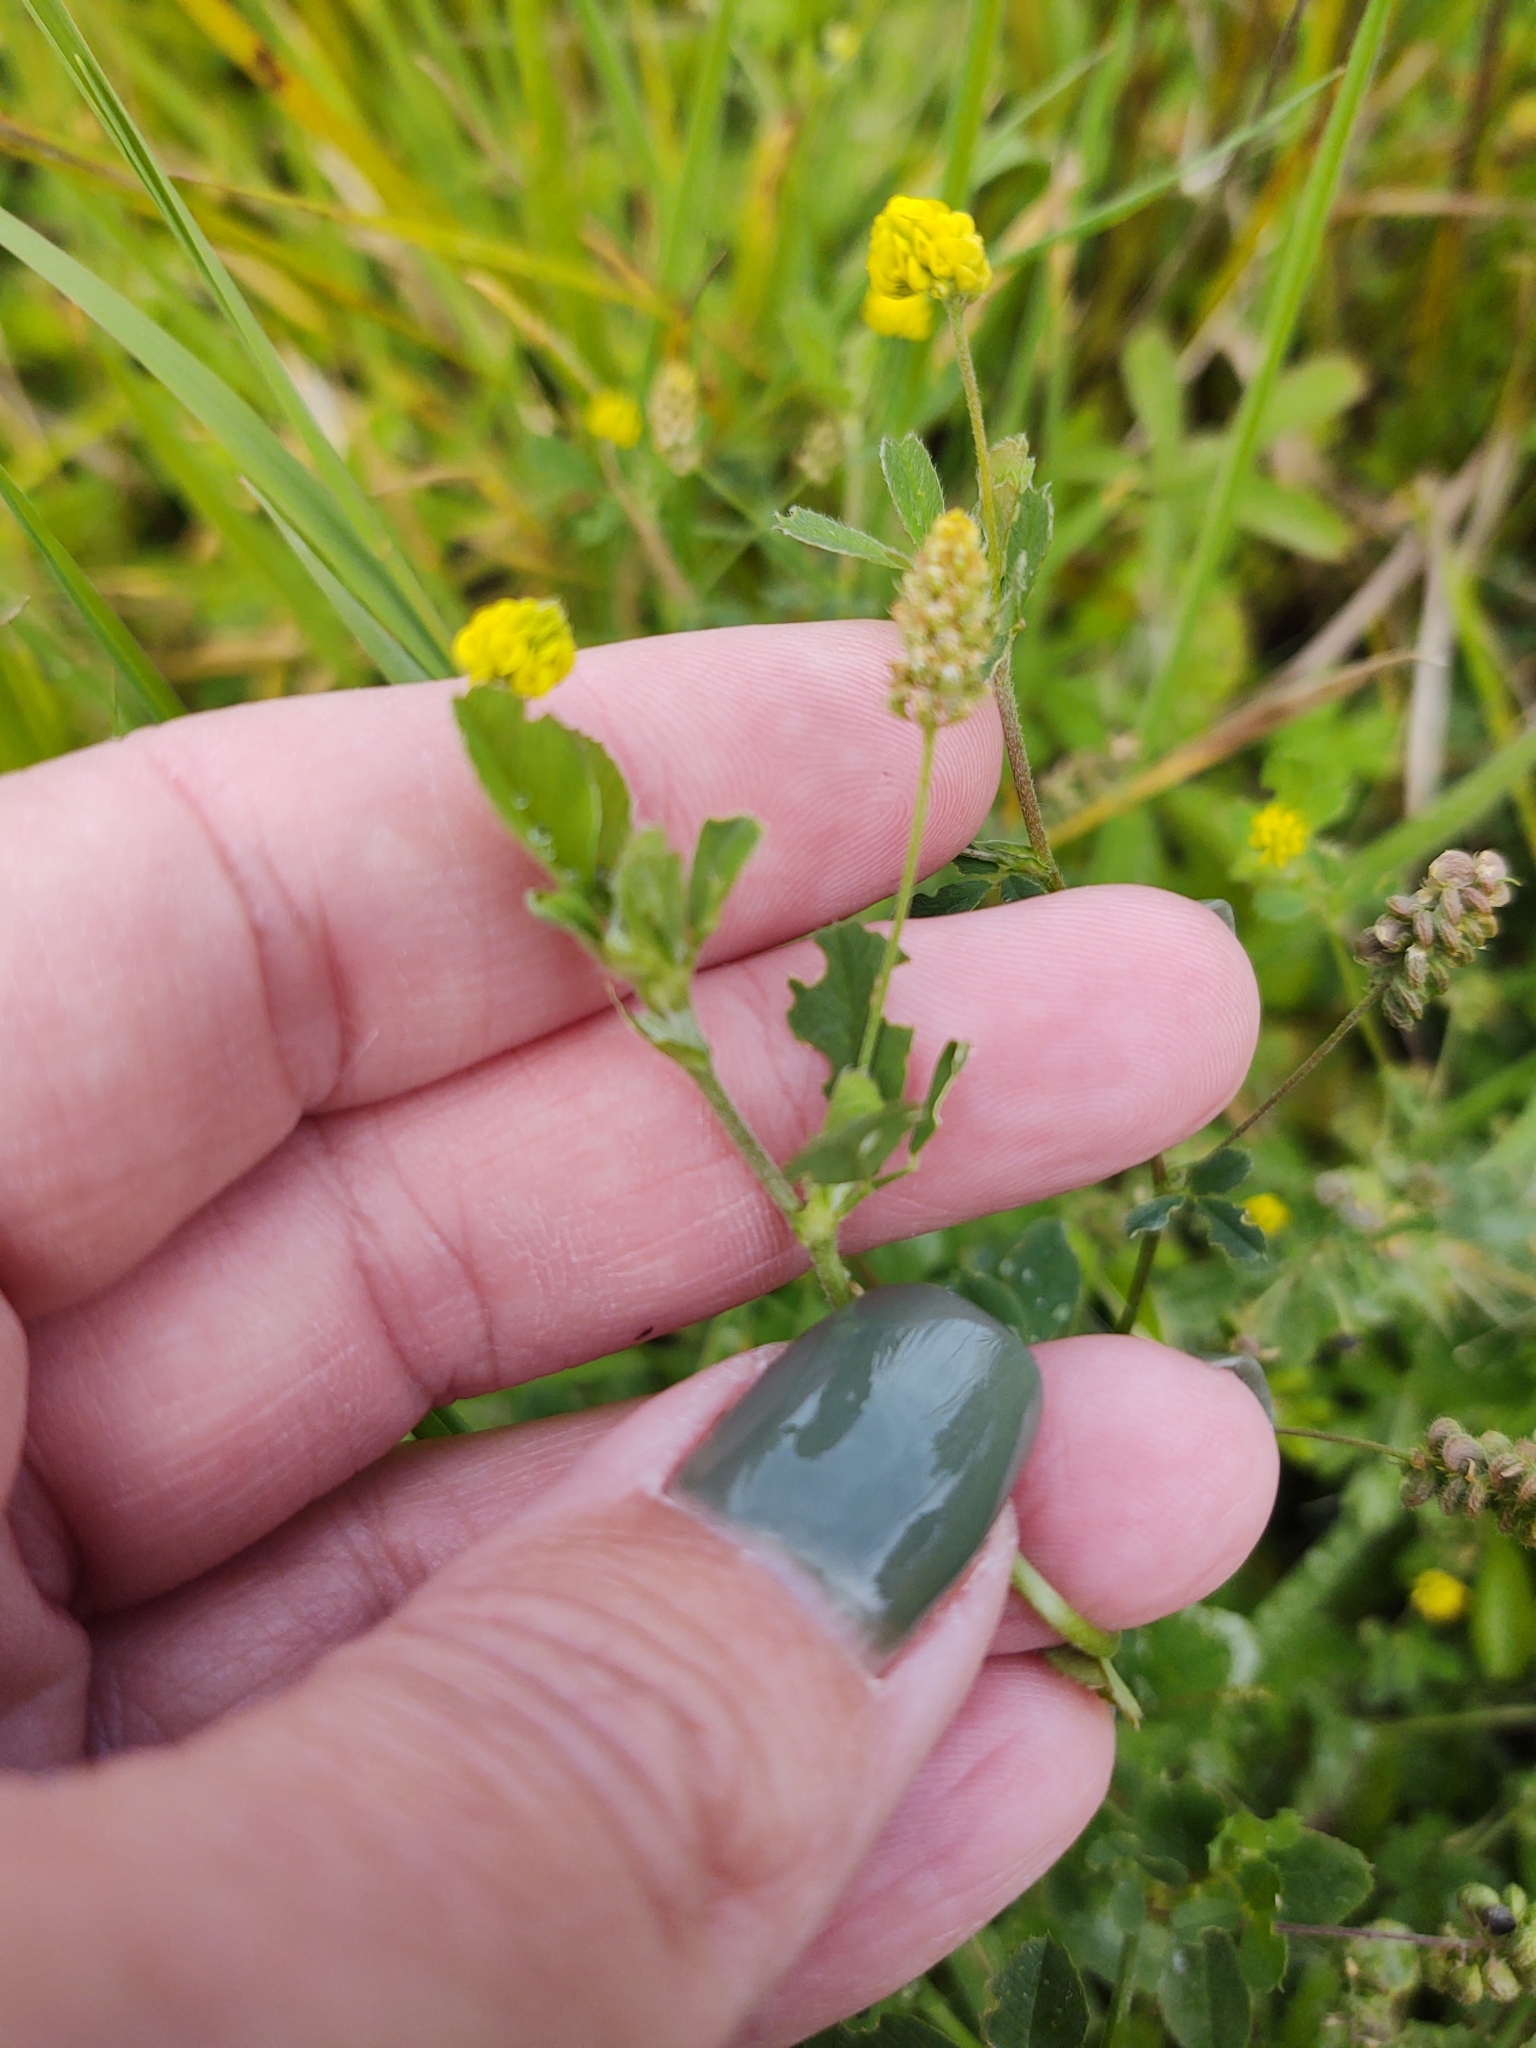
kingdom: Plantae
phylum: Tracheophyta
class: Magnoliopsida
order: Fabales
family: Fabaceae
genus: Medicago
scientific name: Medicago lupulina
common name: Black medick
